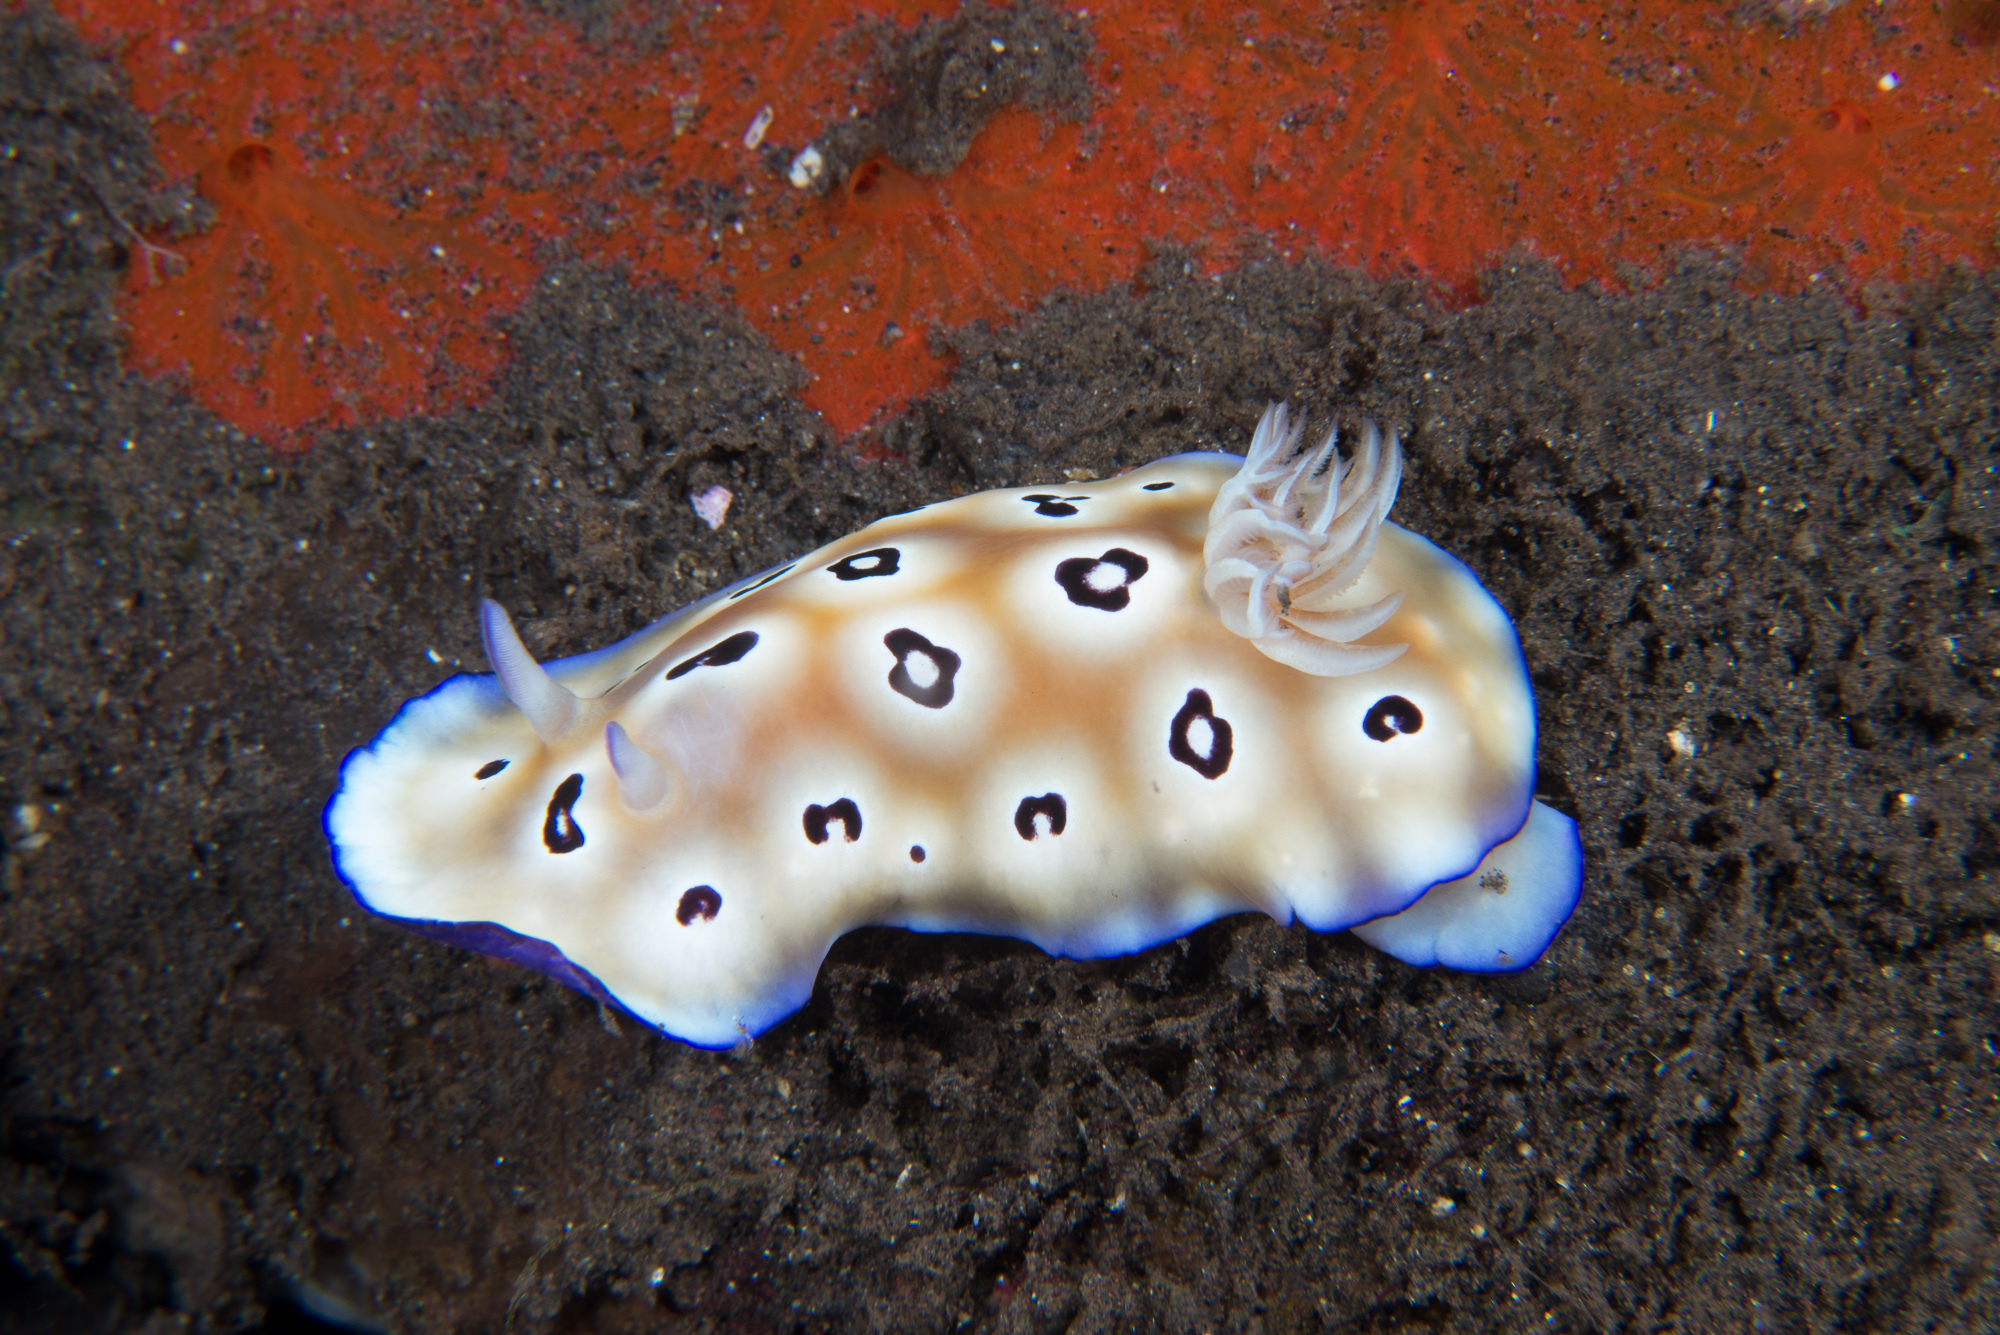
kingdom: Animalia
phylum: Mollusca
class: Gastropoda
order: Nudibranchia
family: Chromodorididae
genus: Goniobranchus
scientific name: Goniobranchus leopardus
